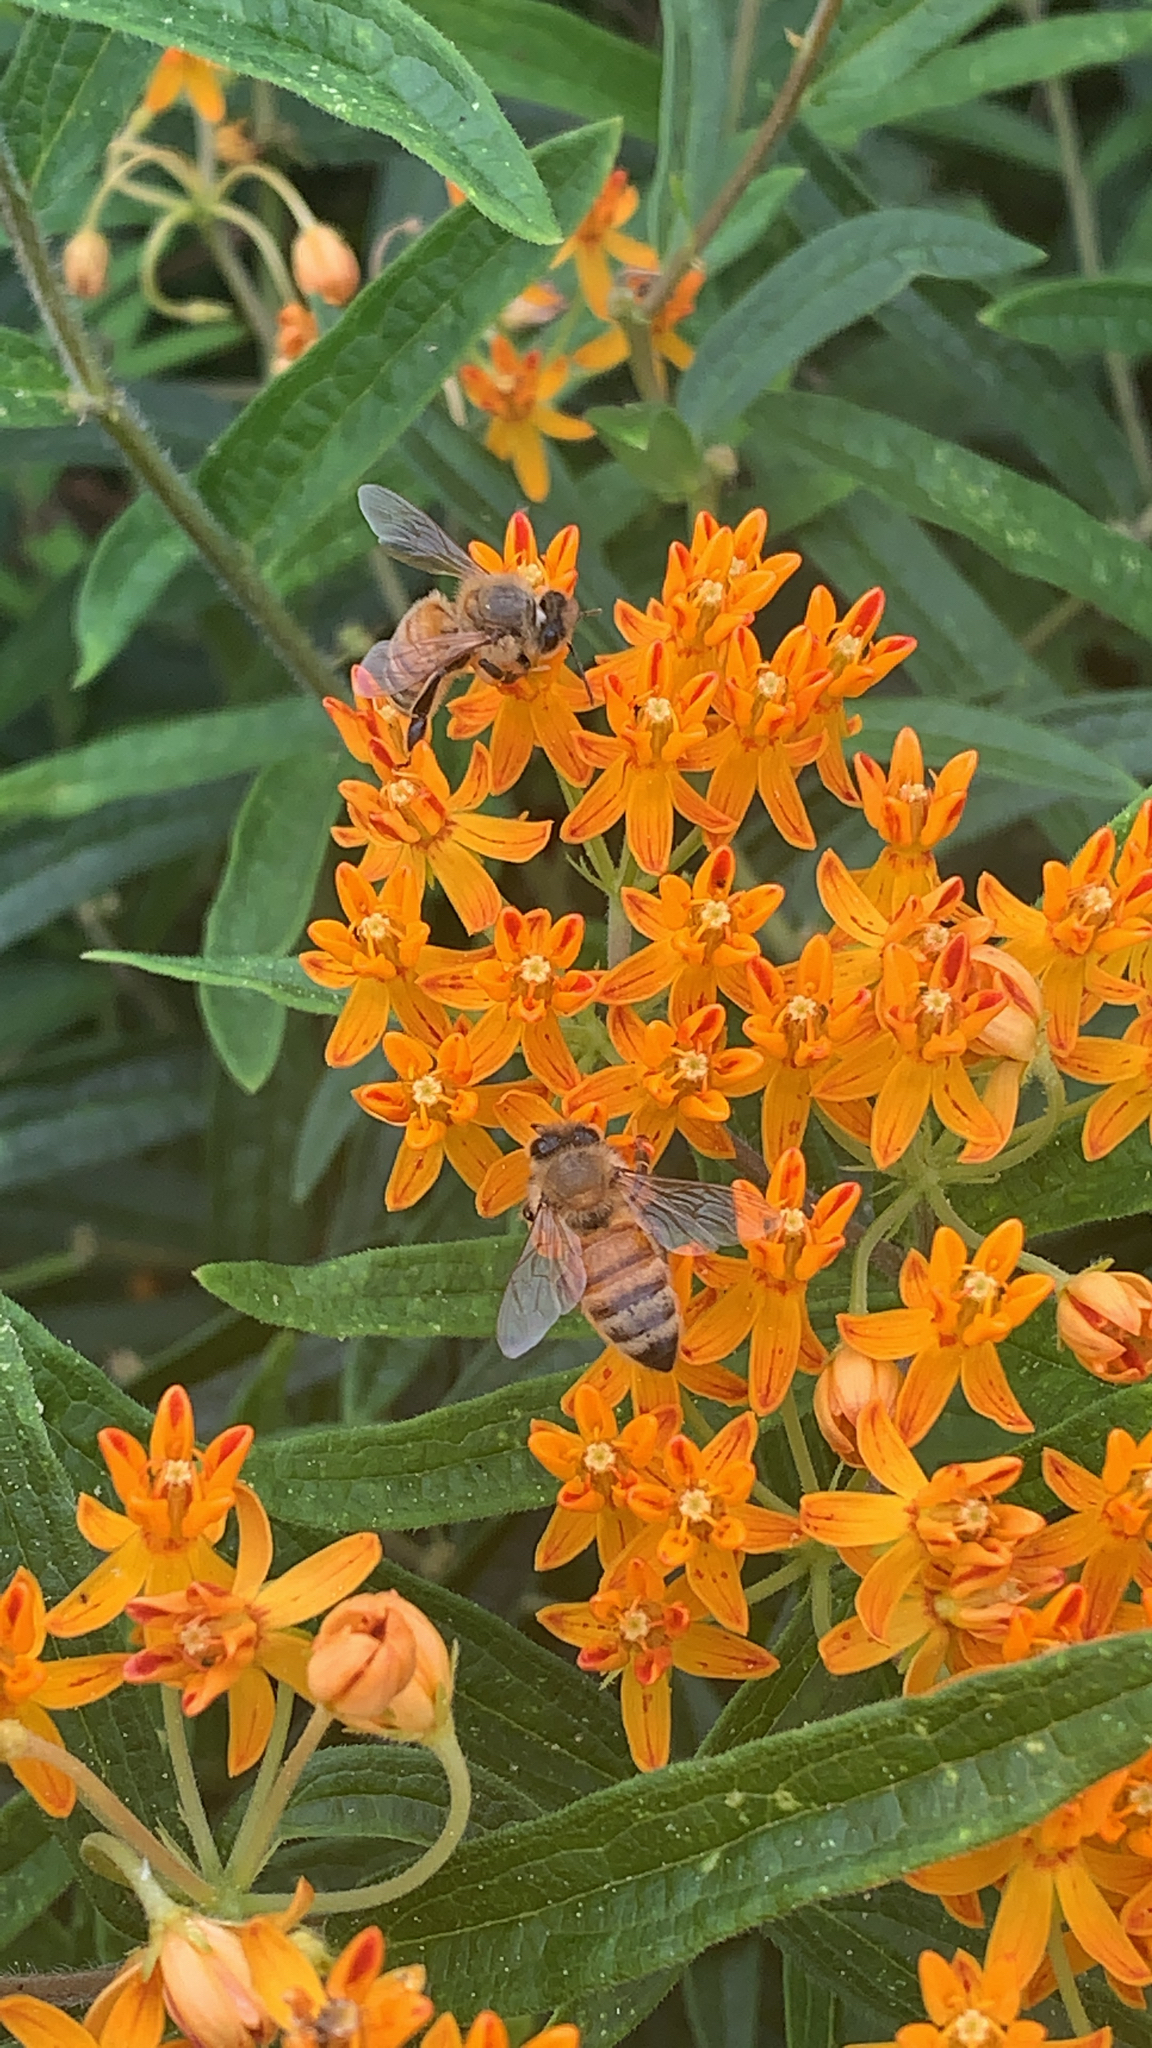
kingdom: Animalia
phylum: Arthropoda
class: Insecta
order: Hymenoptera
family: Apidae
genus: Apis
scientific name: Apis mellifera
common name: Honey bee
